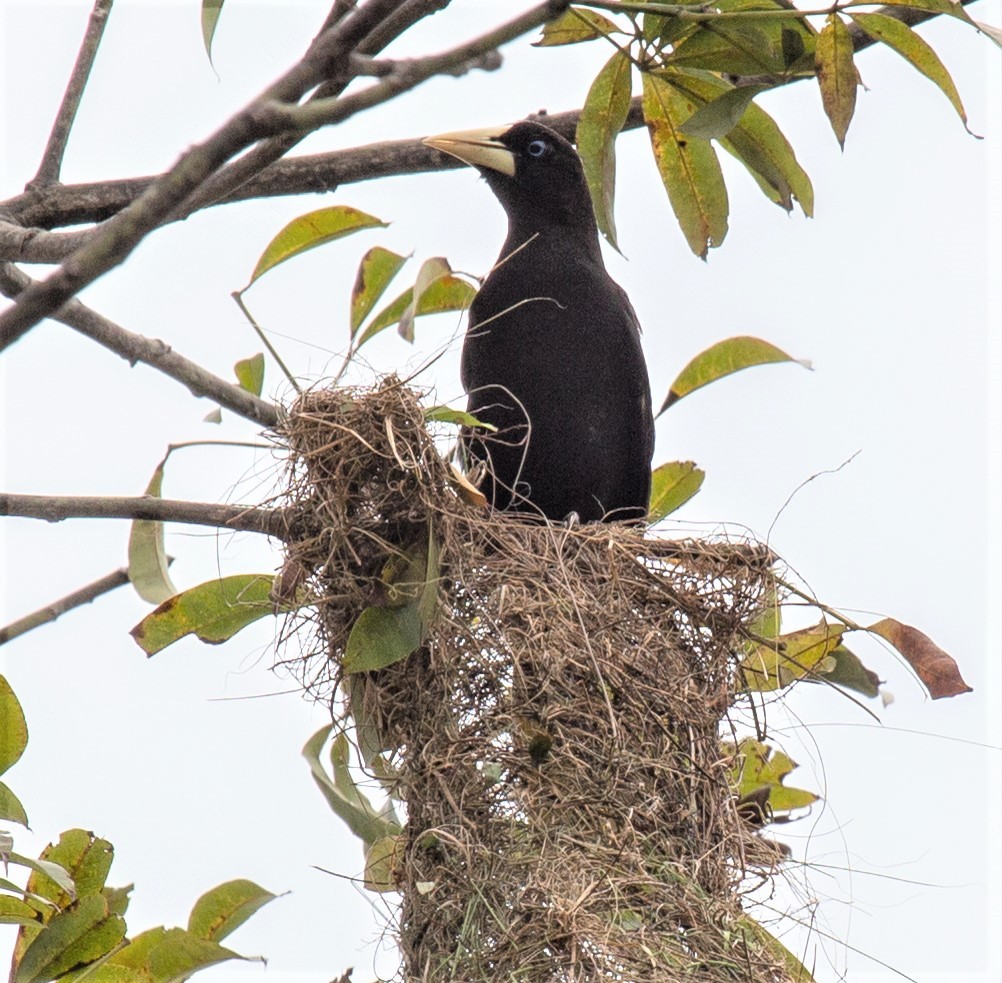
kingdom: Animalia
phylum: Chordata
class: Aves
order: Passeriformes
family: Icteridae
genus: Psarocolius
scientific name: Psarocolius decumanus
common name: Crested oropendola
